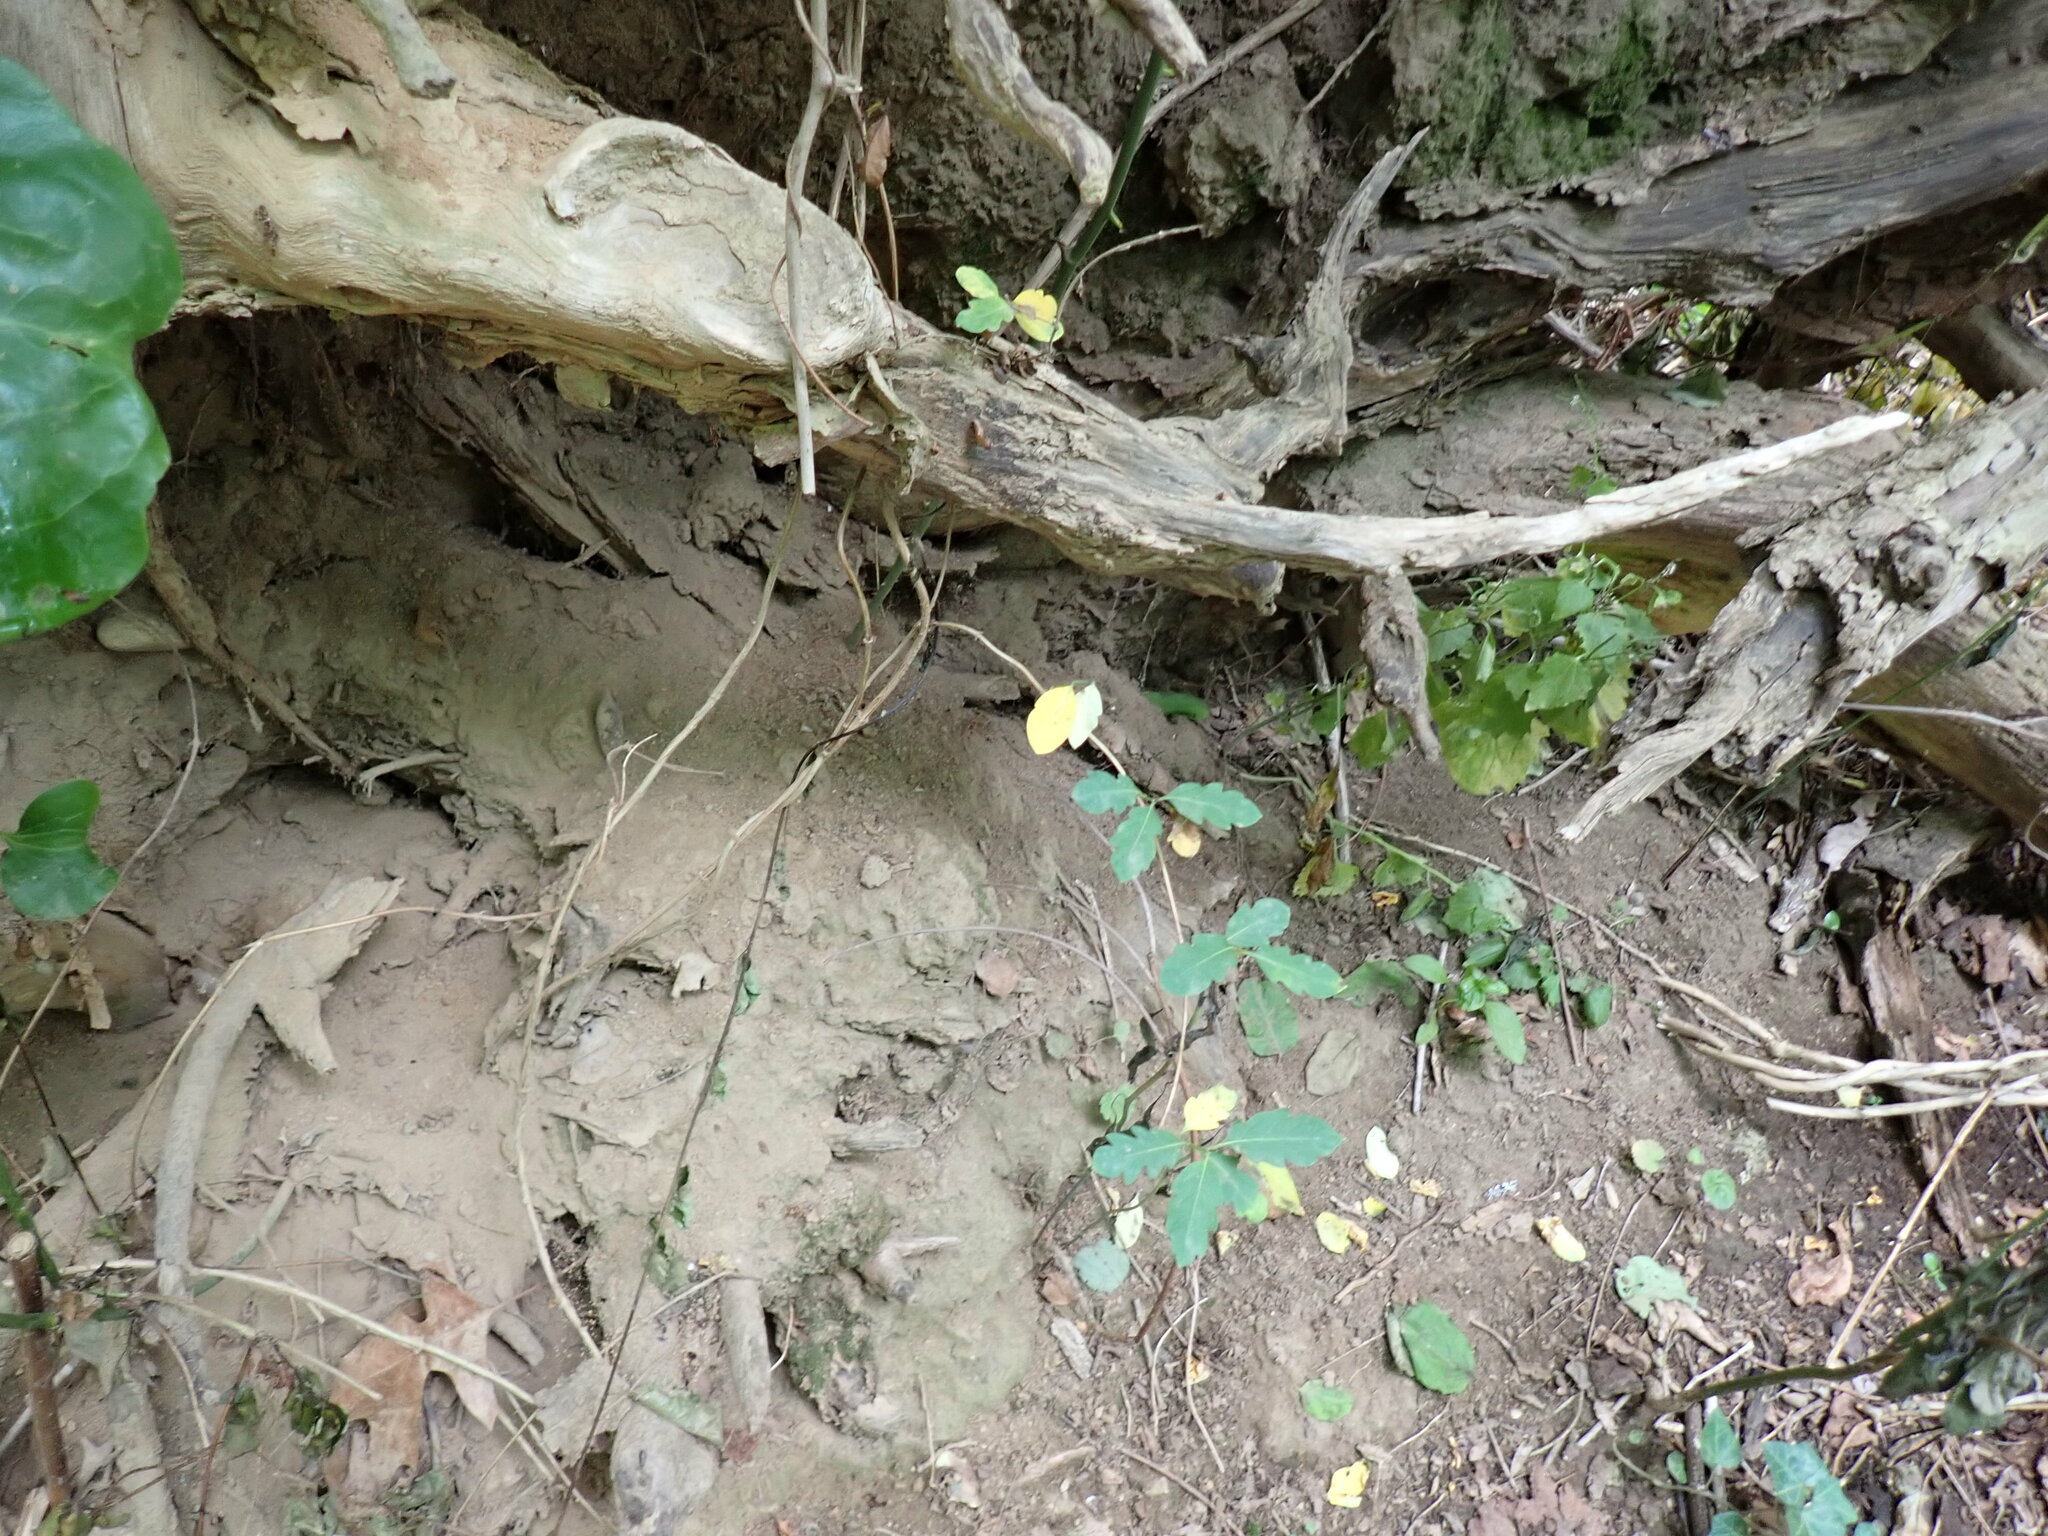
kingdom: Plantae
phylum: Tracheophyta
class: Magnoliopsida
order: Dipsacales
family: Caprifoliaceae
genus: Lonicera
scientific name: Lonicera japonica
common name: Japanese honeysuckle
